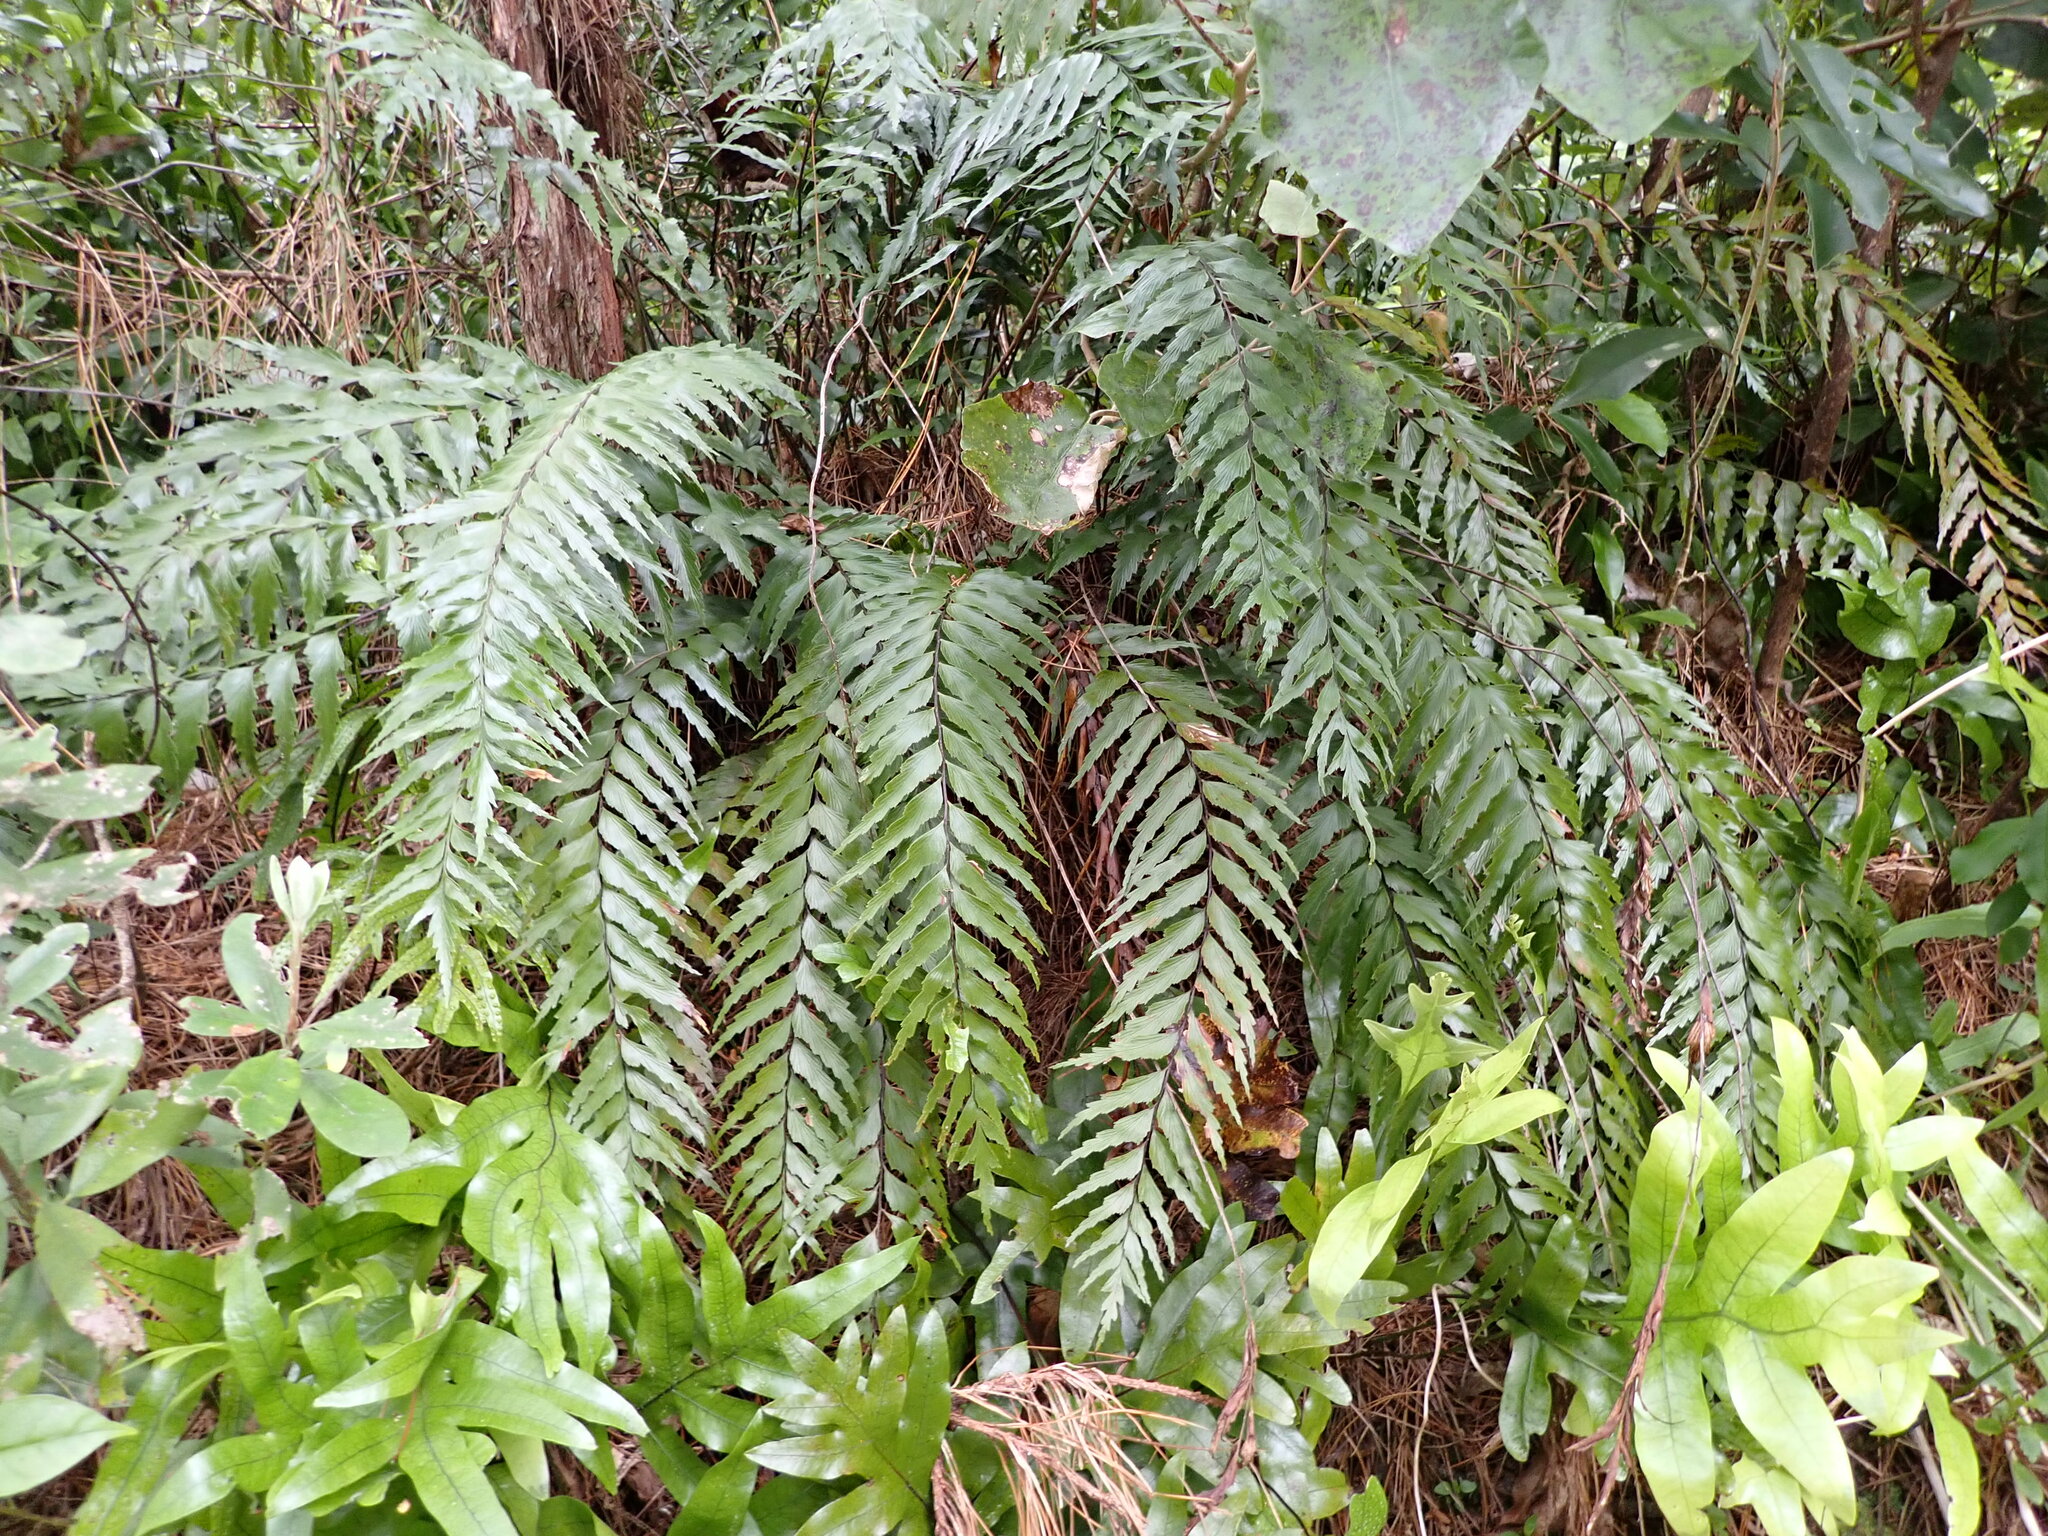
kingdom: Plantae
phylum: Tracheophyta
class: Polypodiopsida
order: Polypodiales
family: Aspleniaceae
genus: Asplenium
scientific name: Asplenium polyodon
